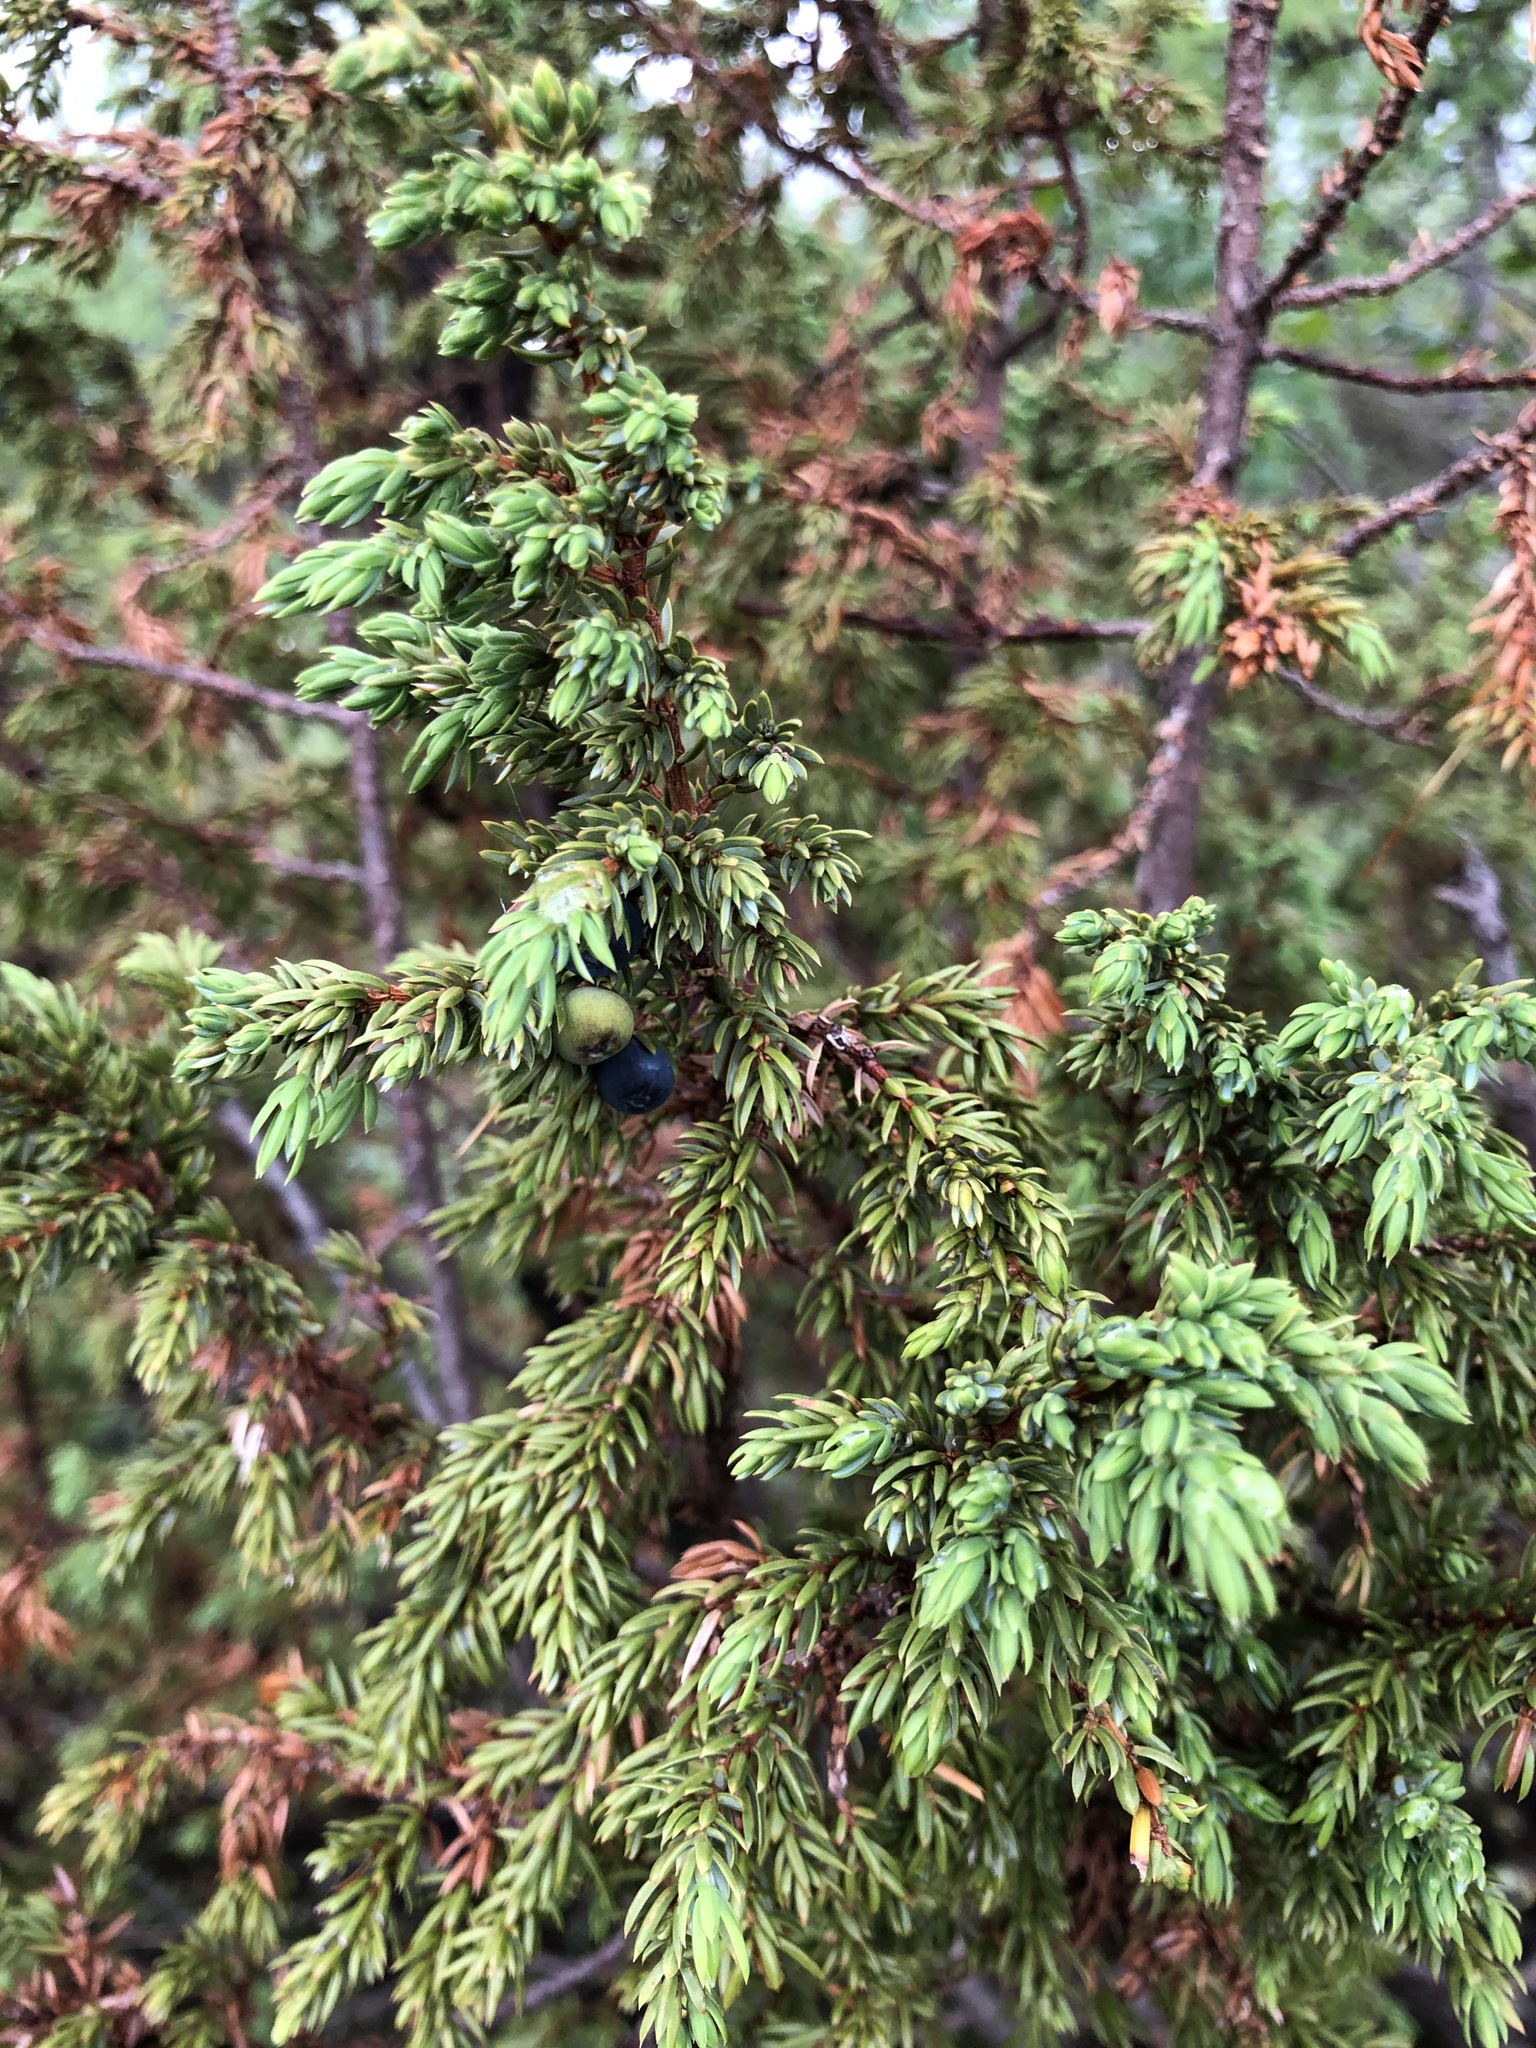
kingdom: Plantae
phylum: Tracheophyta
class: Pinopsida
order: Pinales
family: Cupressaceae
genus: Juniperus
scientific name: Juniperus communis
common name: Common juniper
